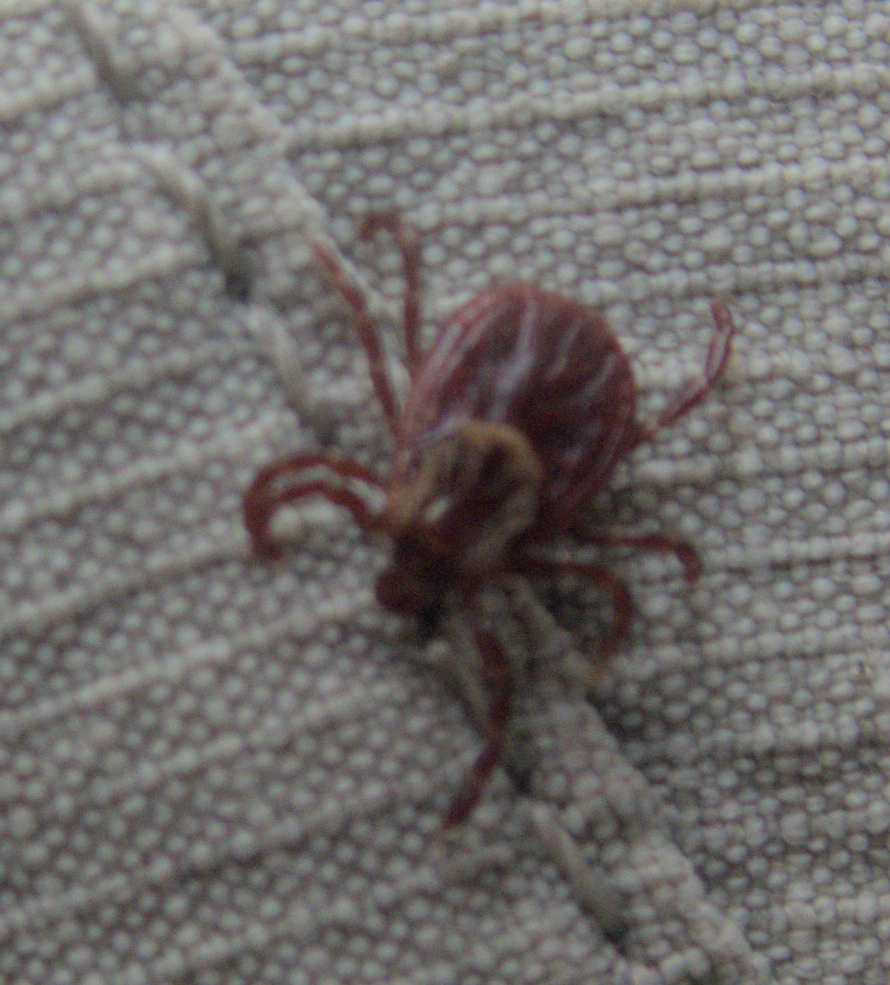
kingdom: Animalia
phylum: Arthropoda
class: Arachnida
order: Ixodida
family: Ixodidae
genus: Dermacentor
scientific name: Dermacentor variabilis
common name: American dog tick
